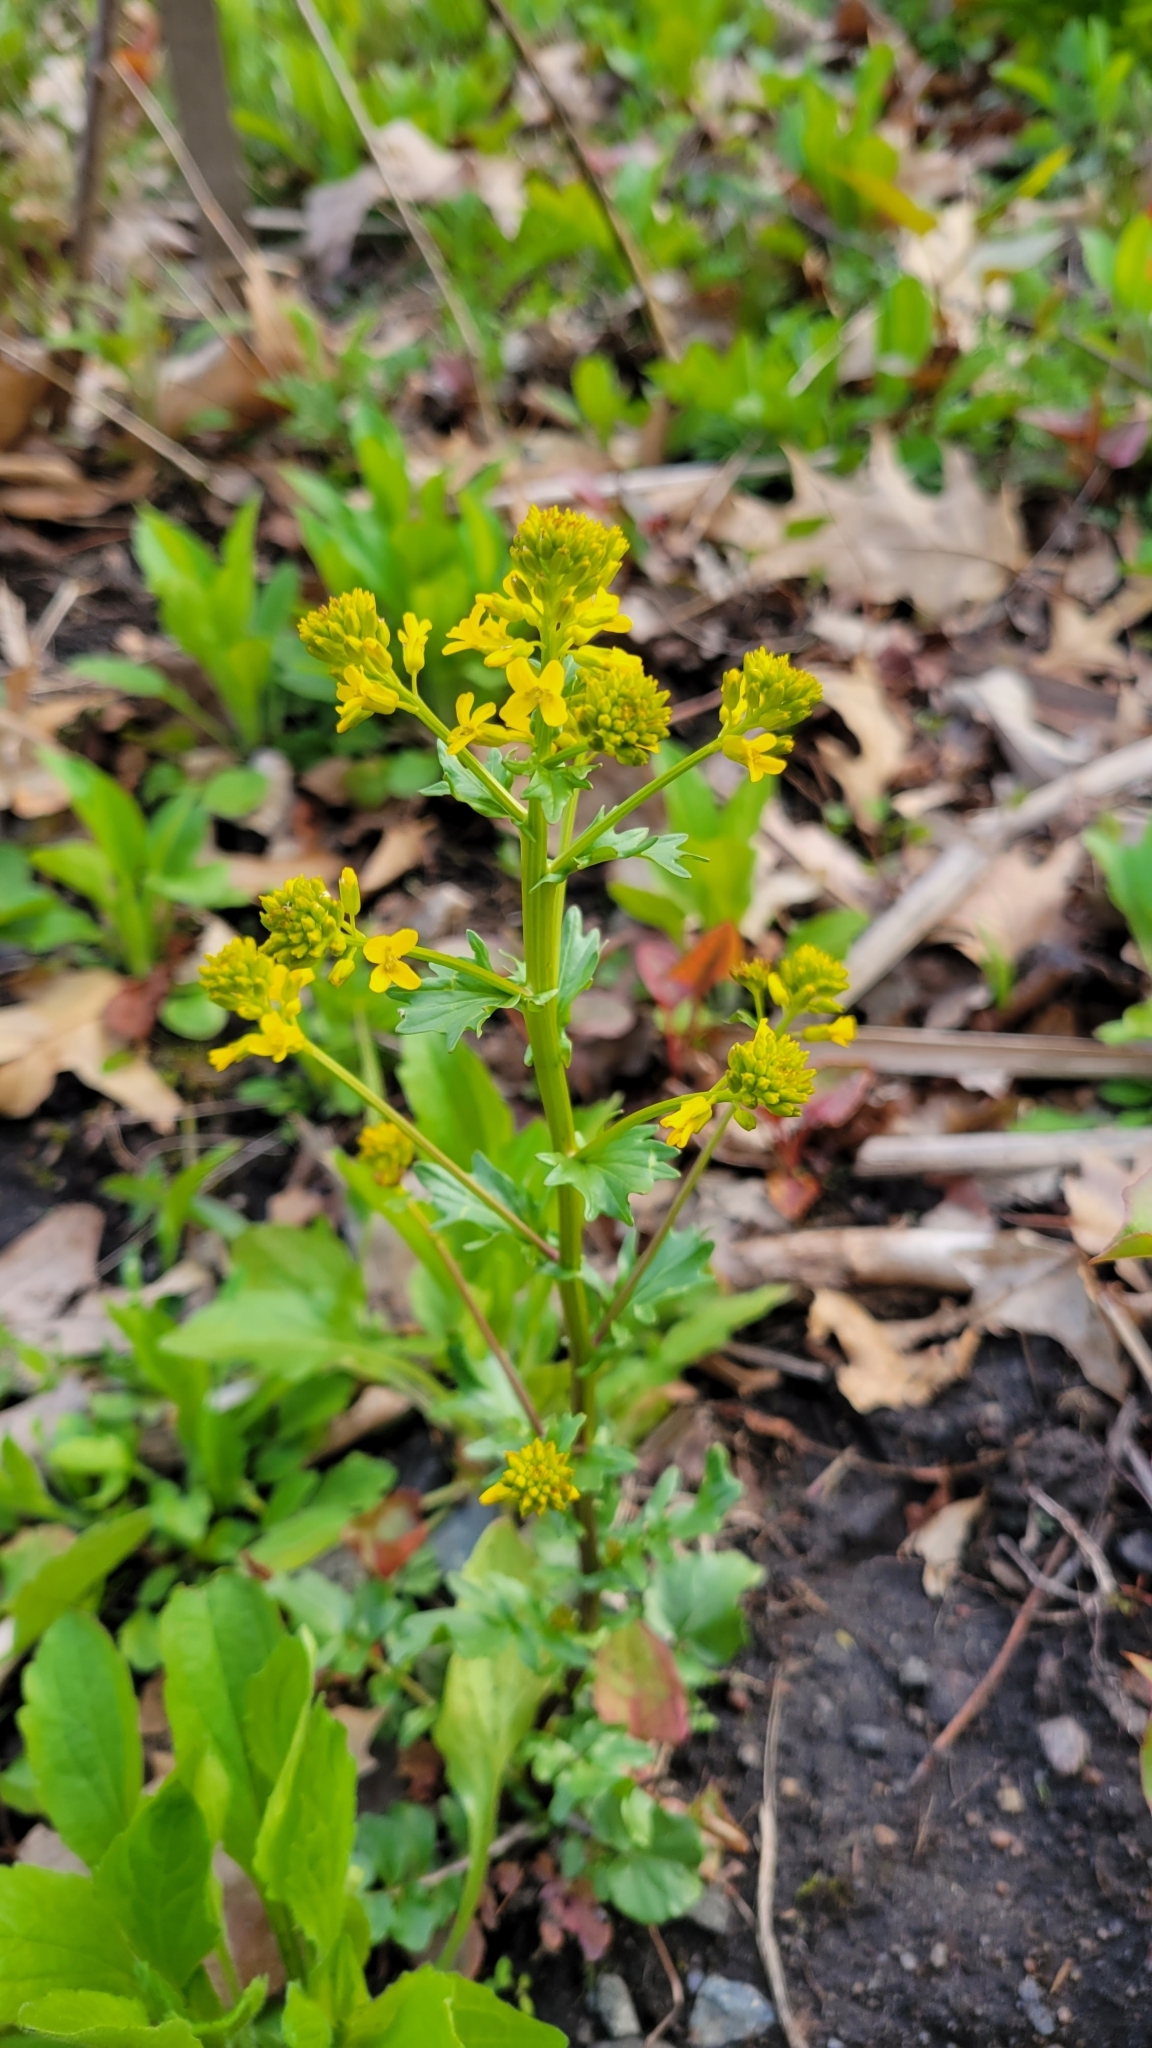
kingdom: Plantae
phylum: Tracheophyta
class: Magnoliopsida
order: Brassicales
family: Brassicaceae
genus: Barbarea
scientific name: Barbarea vulgaris
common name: Cressy-greens
